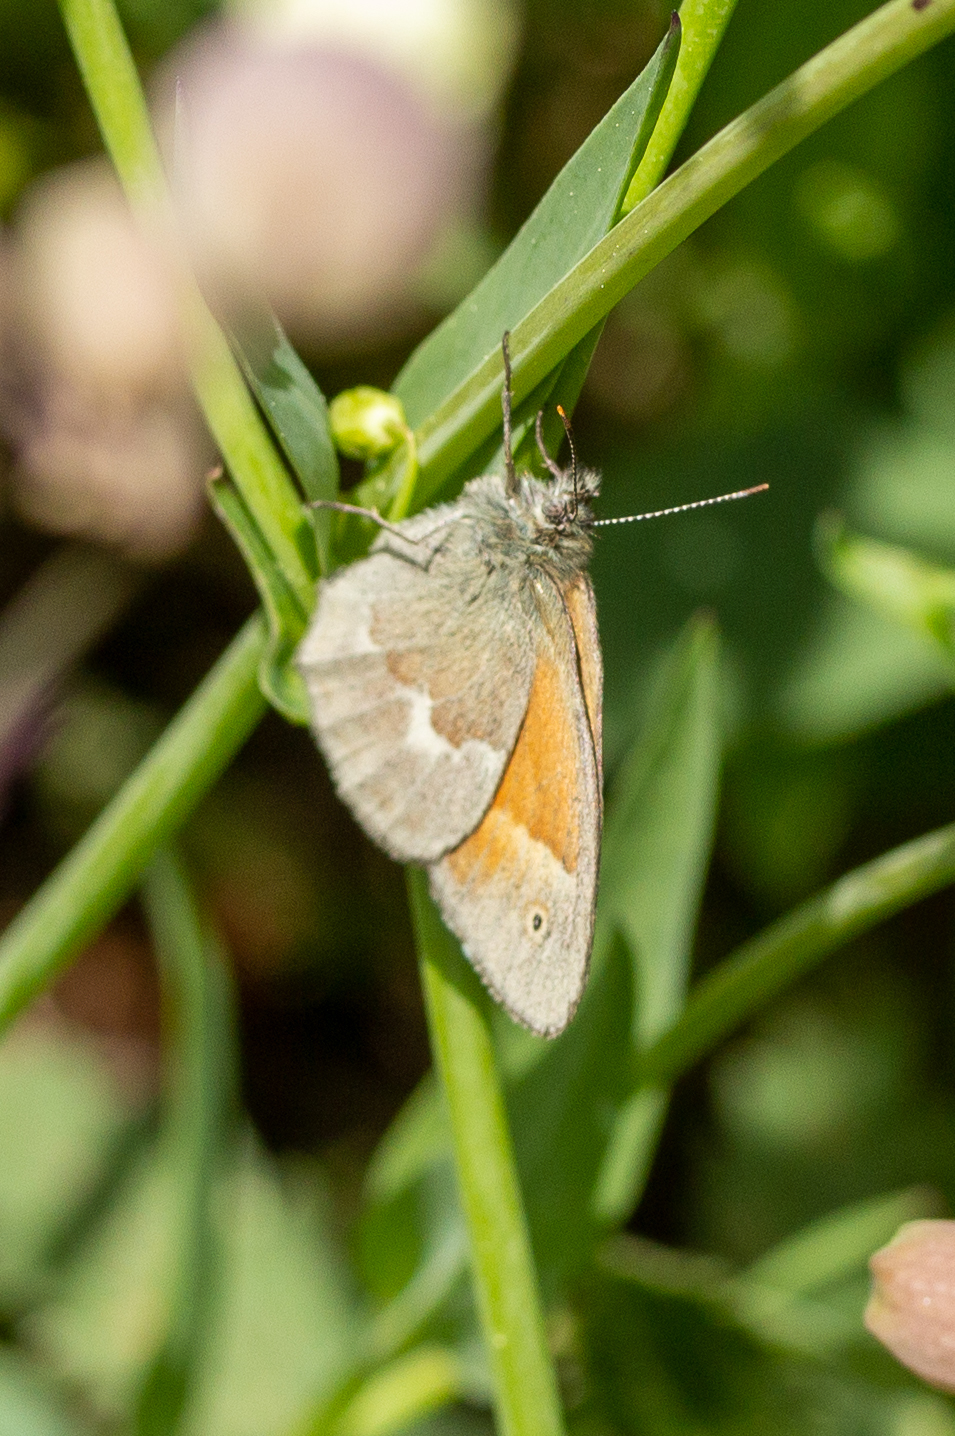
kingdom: Animalia
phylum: Arthropoda
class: Insecta
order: Lepidoptera
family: Nymphalidae
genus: Coenonympha
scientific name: Coenonympha california
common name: Common ringlet
